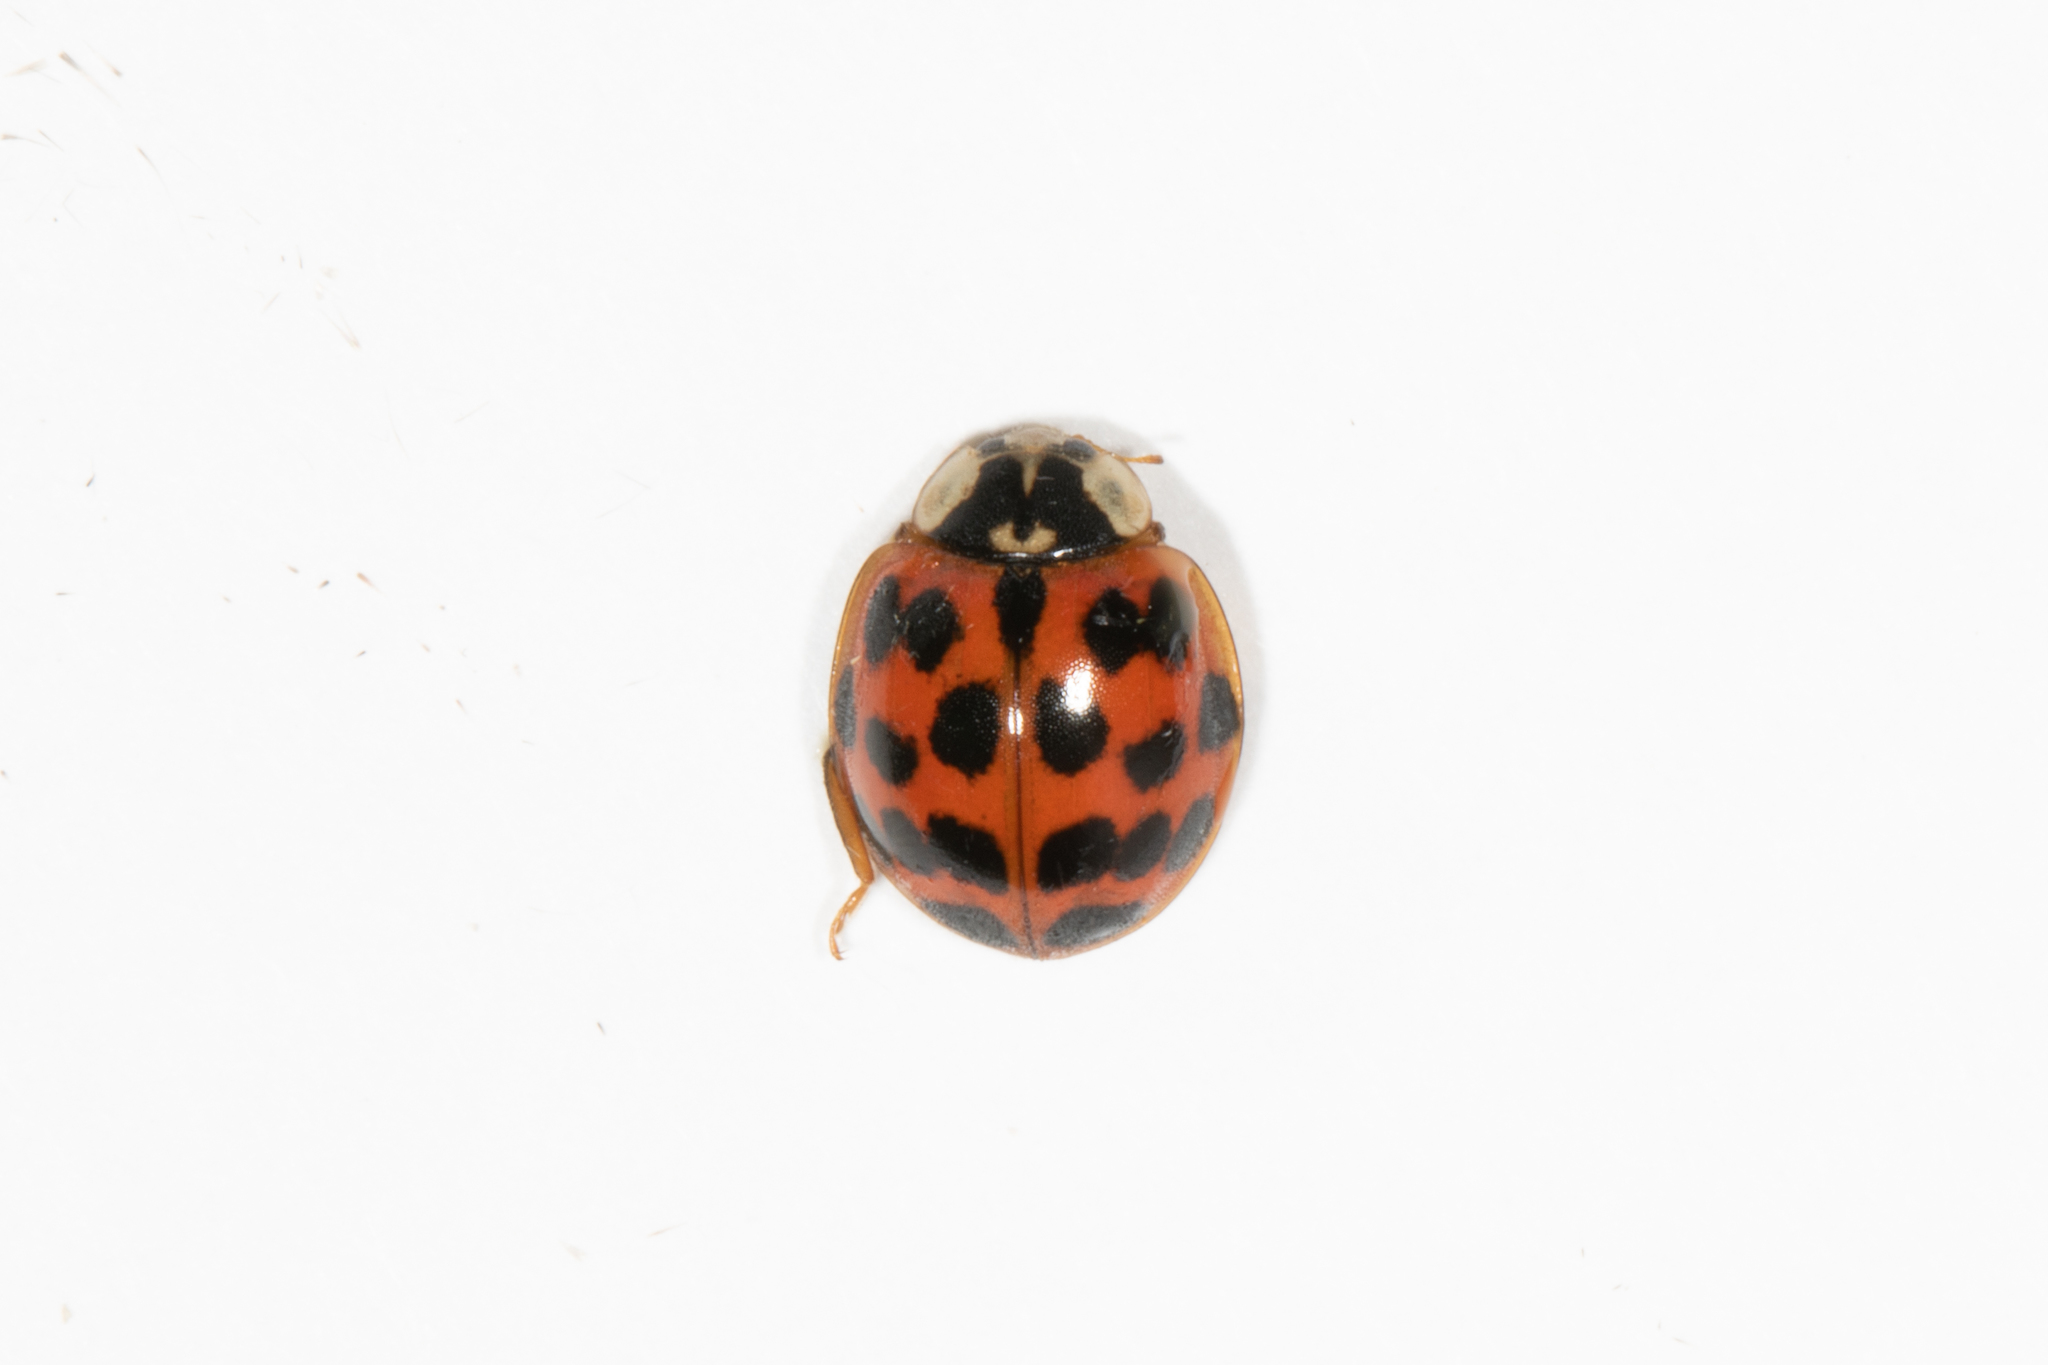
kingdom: Animalia
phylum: Arthropoda
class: Insecta
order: Coleoptera
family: Coccinellidae
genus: Harmonia
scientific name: Harmonia axyridis
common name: Harlequin ladybird
